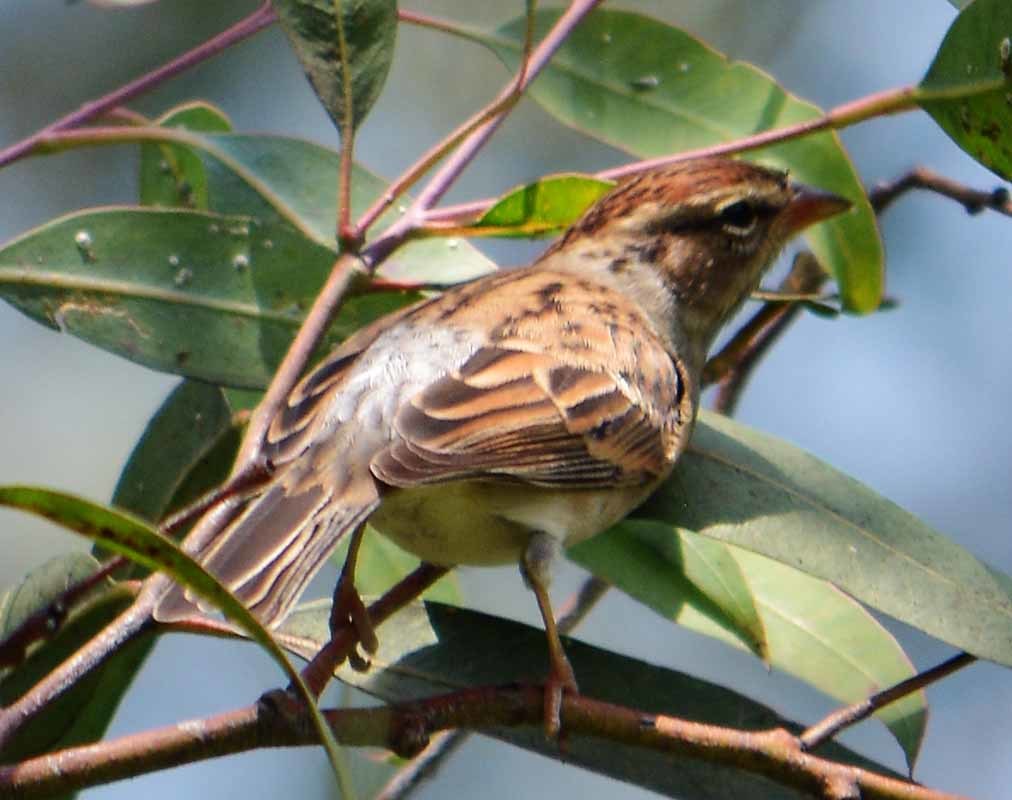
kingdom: Animalia
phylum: Chordata
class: Aves
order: Passeriformes
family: Passerellidae
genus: Spizella
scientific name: Spizella passerina
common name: Chipping sparrow
